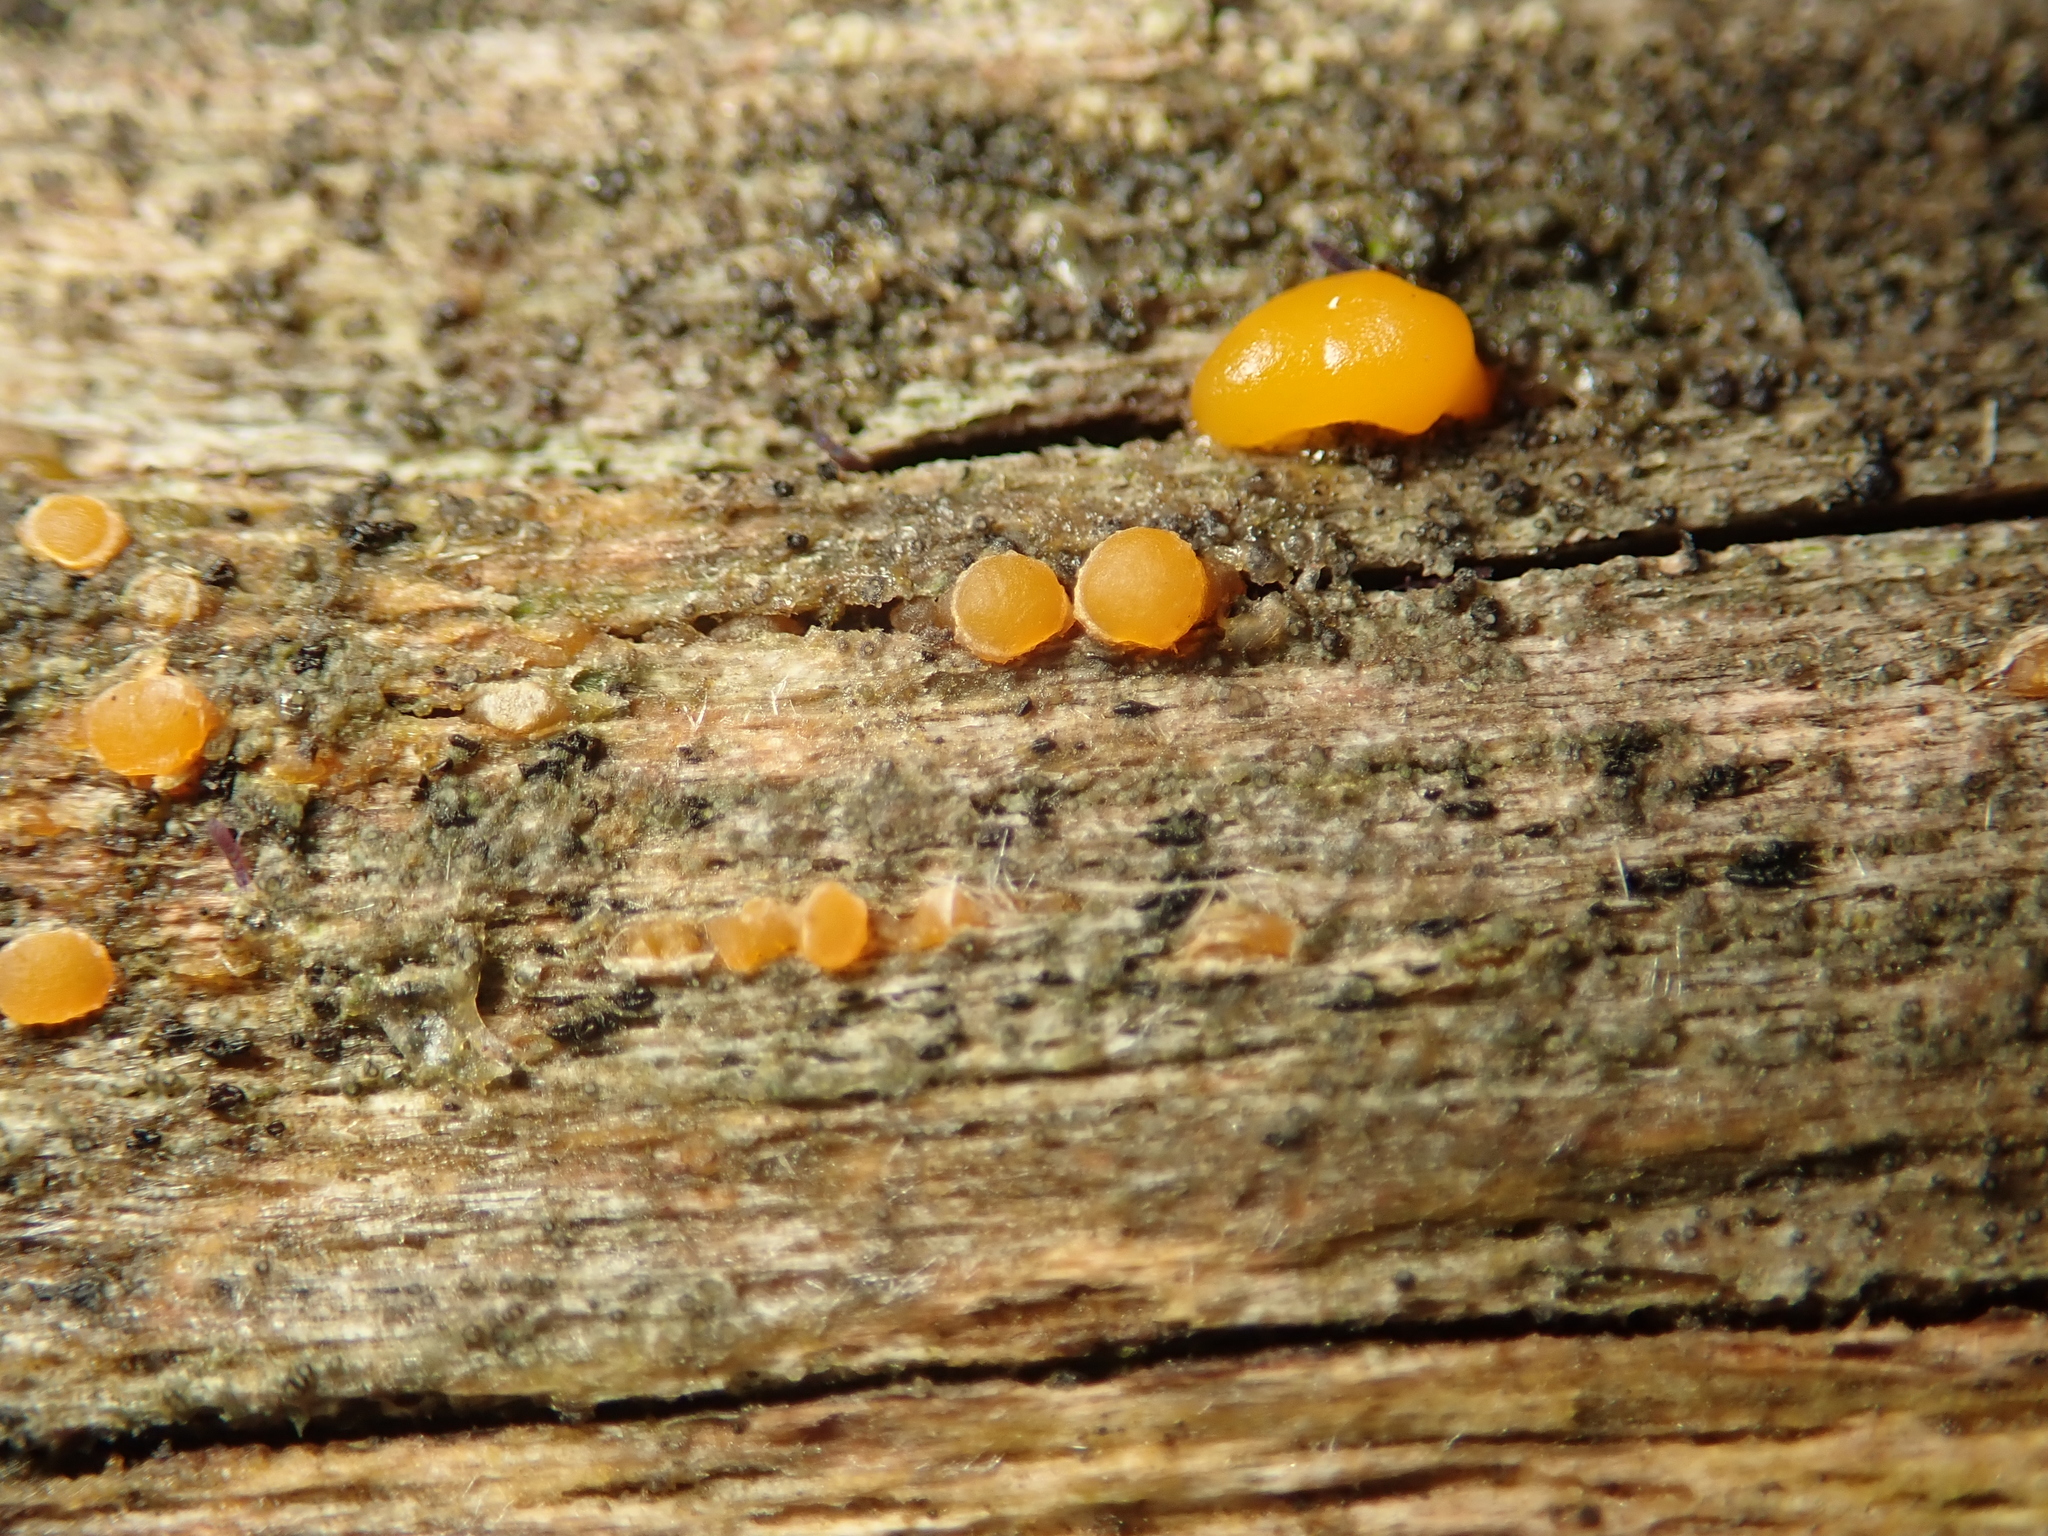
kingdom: Fungi
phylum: Basidiomycota
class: Dacrymycetes
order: Dacrymycetales
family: Dacrymycetaceae
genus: Dacrymyces
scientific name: Dacrymyces stillatus
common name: Common jelly spot
